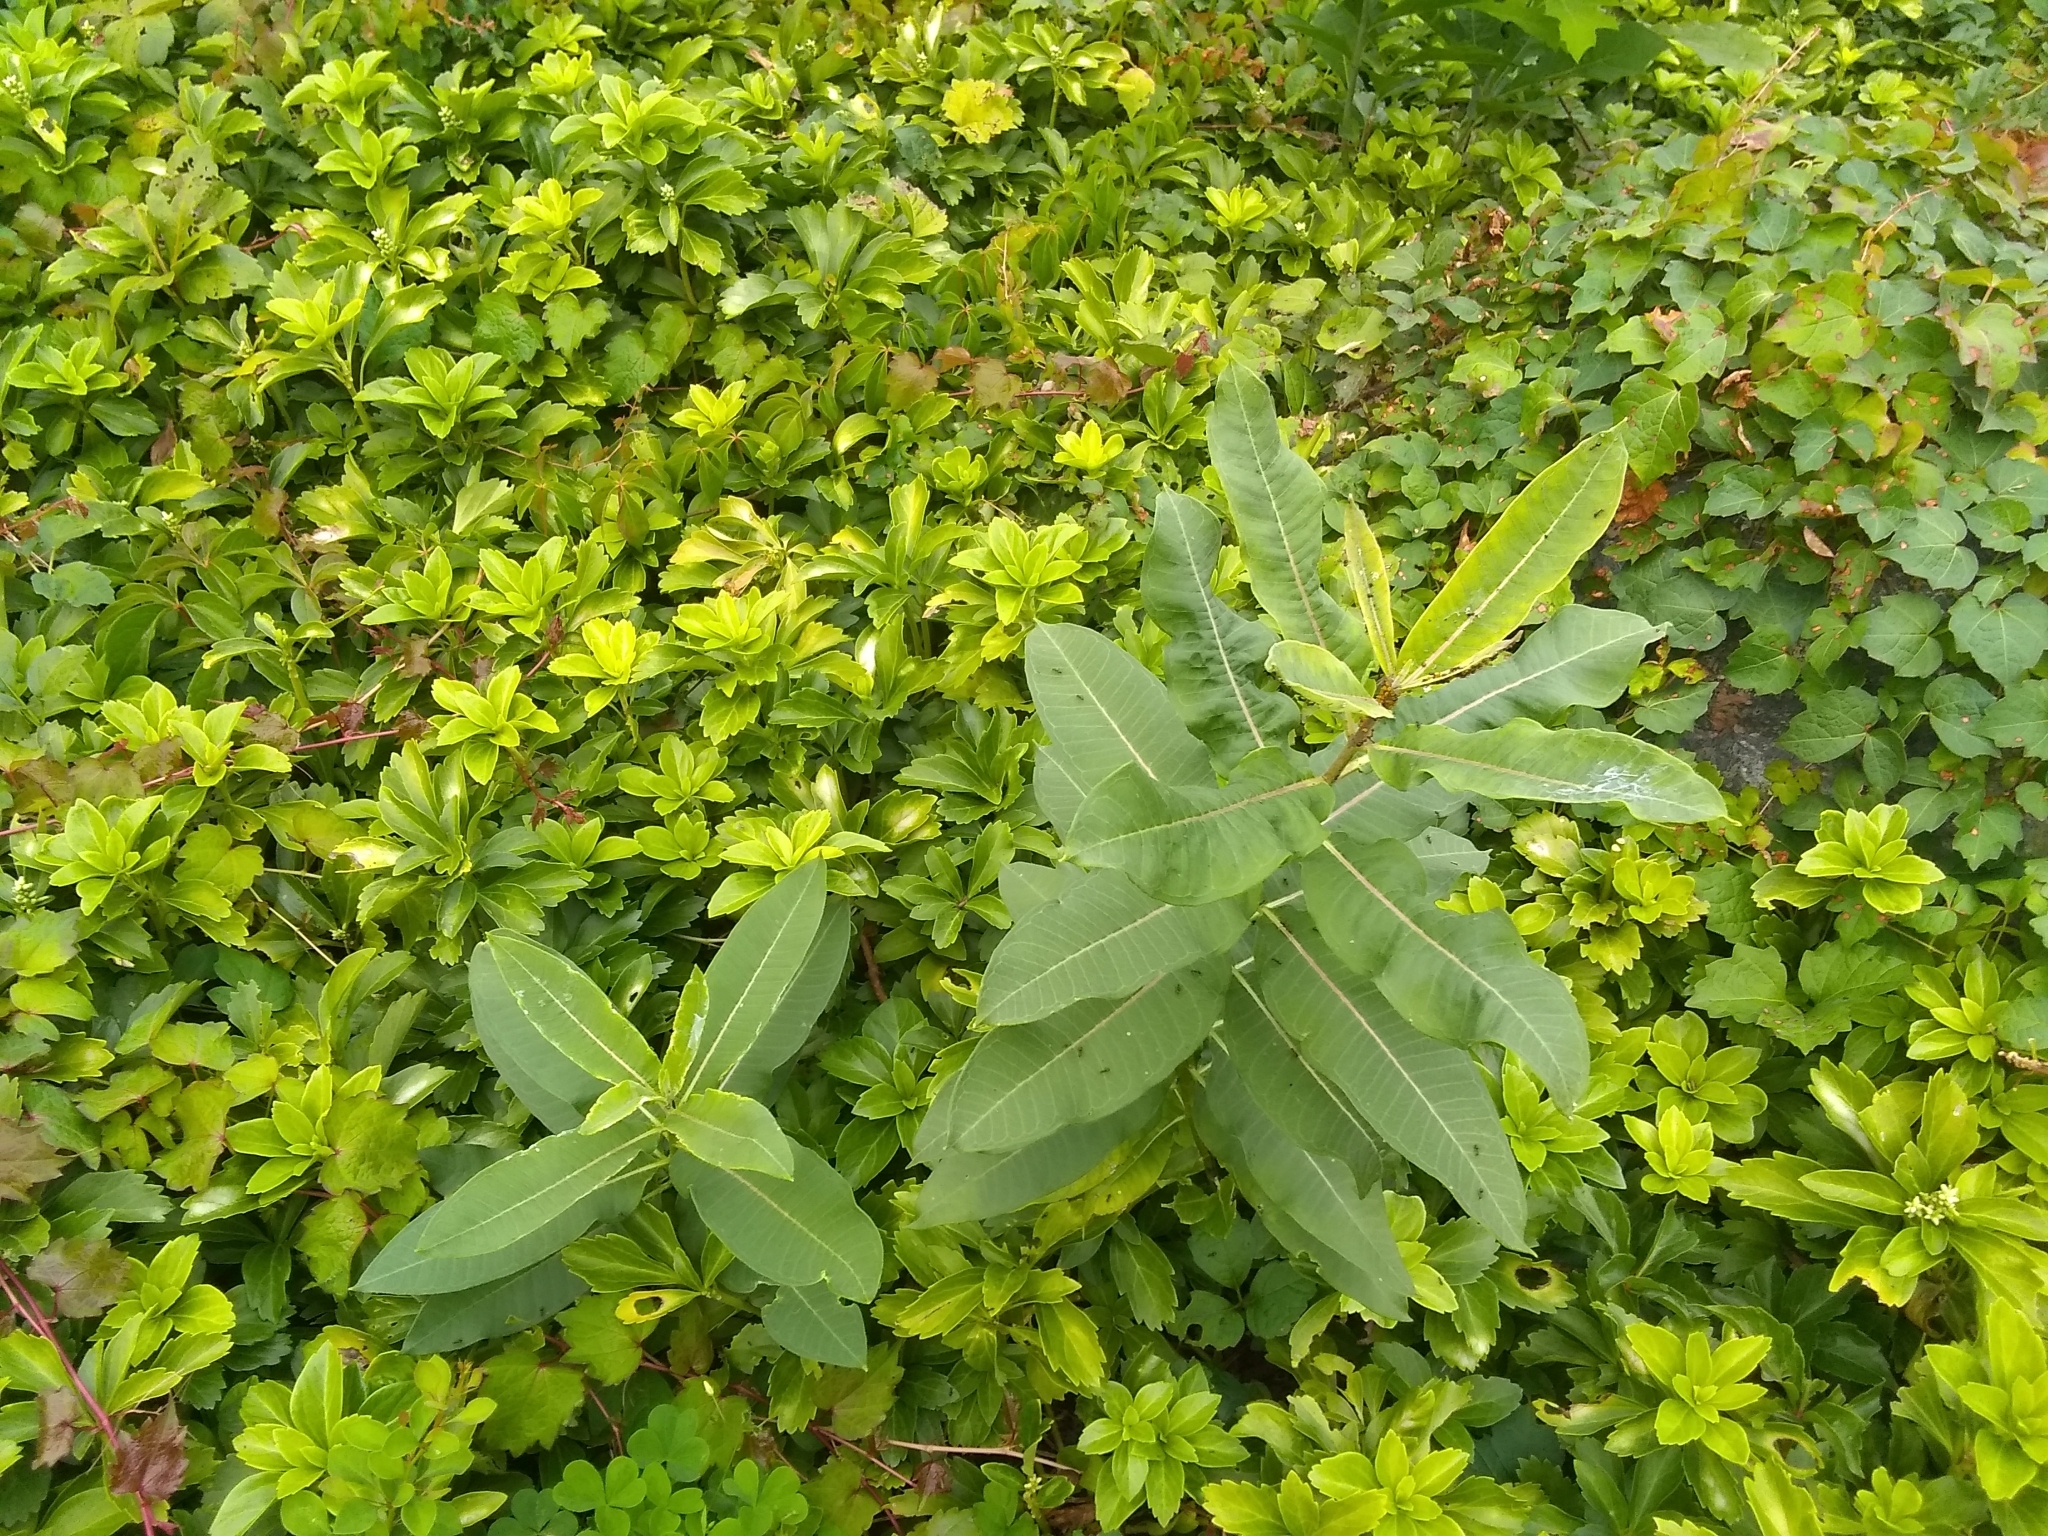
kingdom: Plantae
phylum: Tracheophyta
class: Magnoliopsida
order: Gentianales
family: Apocynaceae
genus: Asclepias
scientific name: Asclepias syriaca
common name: Common milkweed
